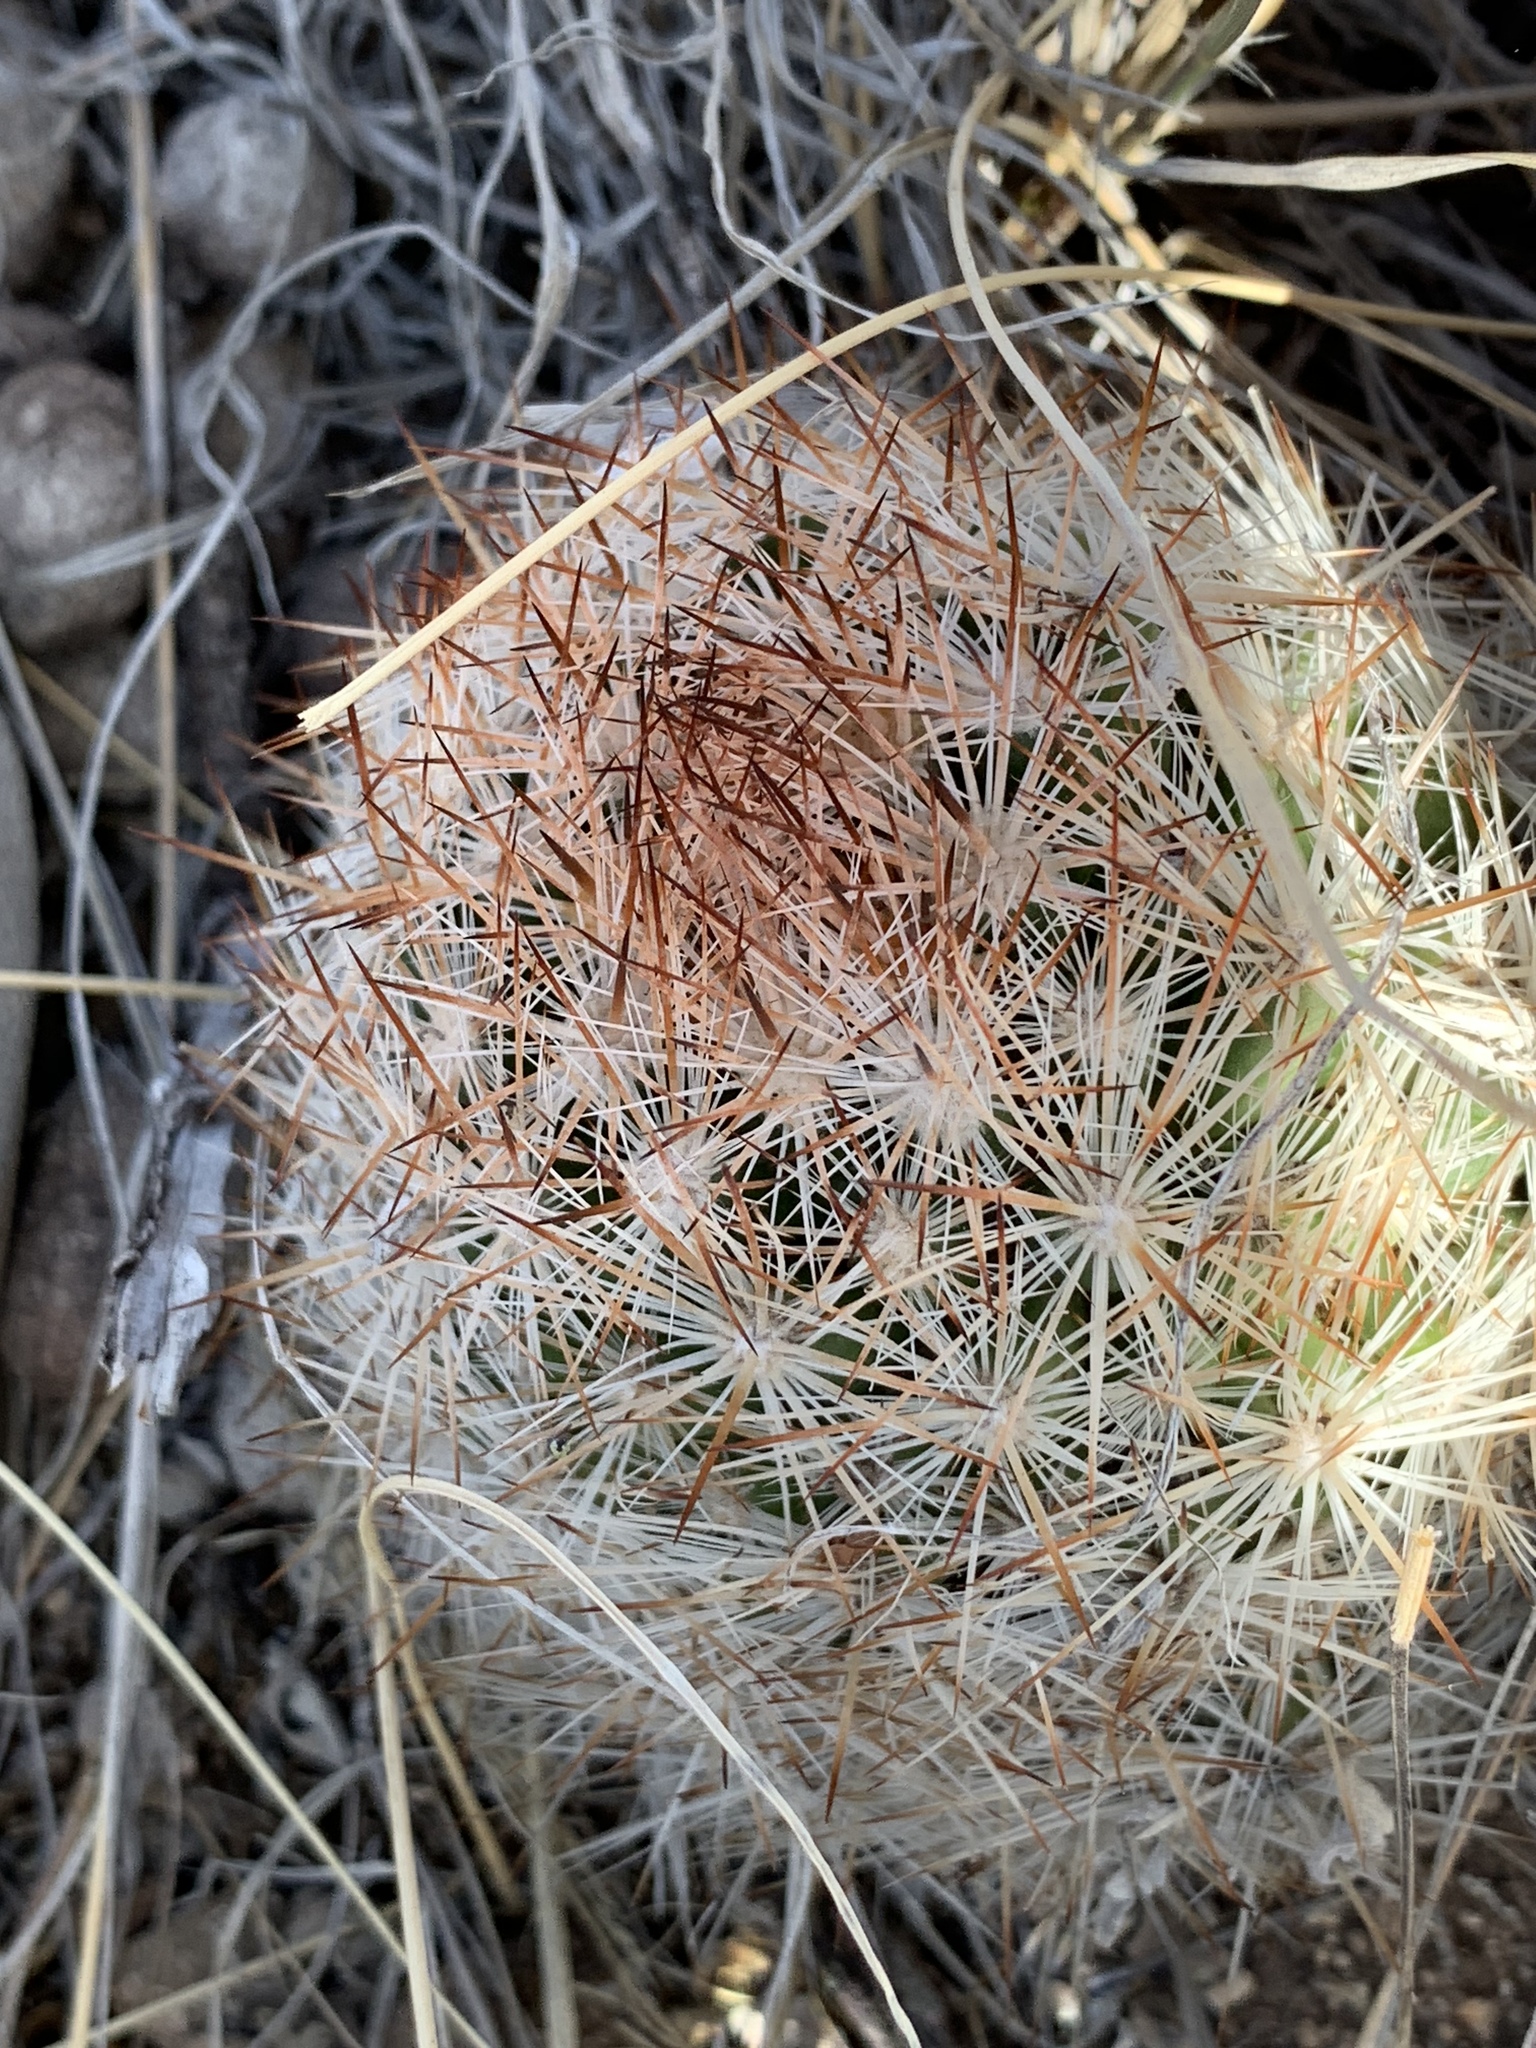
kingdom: Plantae
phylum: Tracheophyta
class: Magnoliopsida
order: Caryophyllales
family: Cactaceae
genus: Pelecyphora
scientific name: Pelecyphora vivipara
